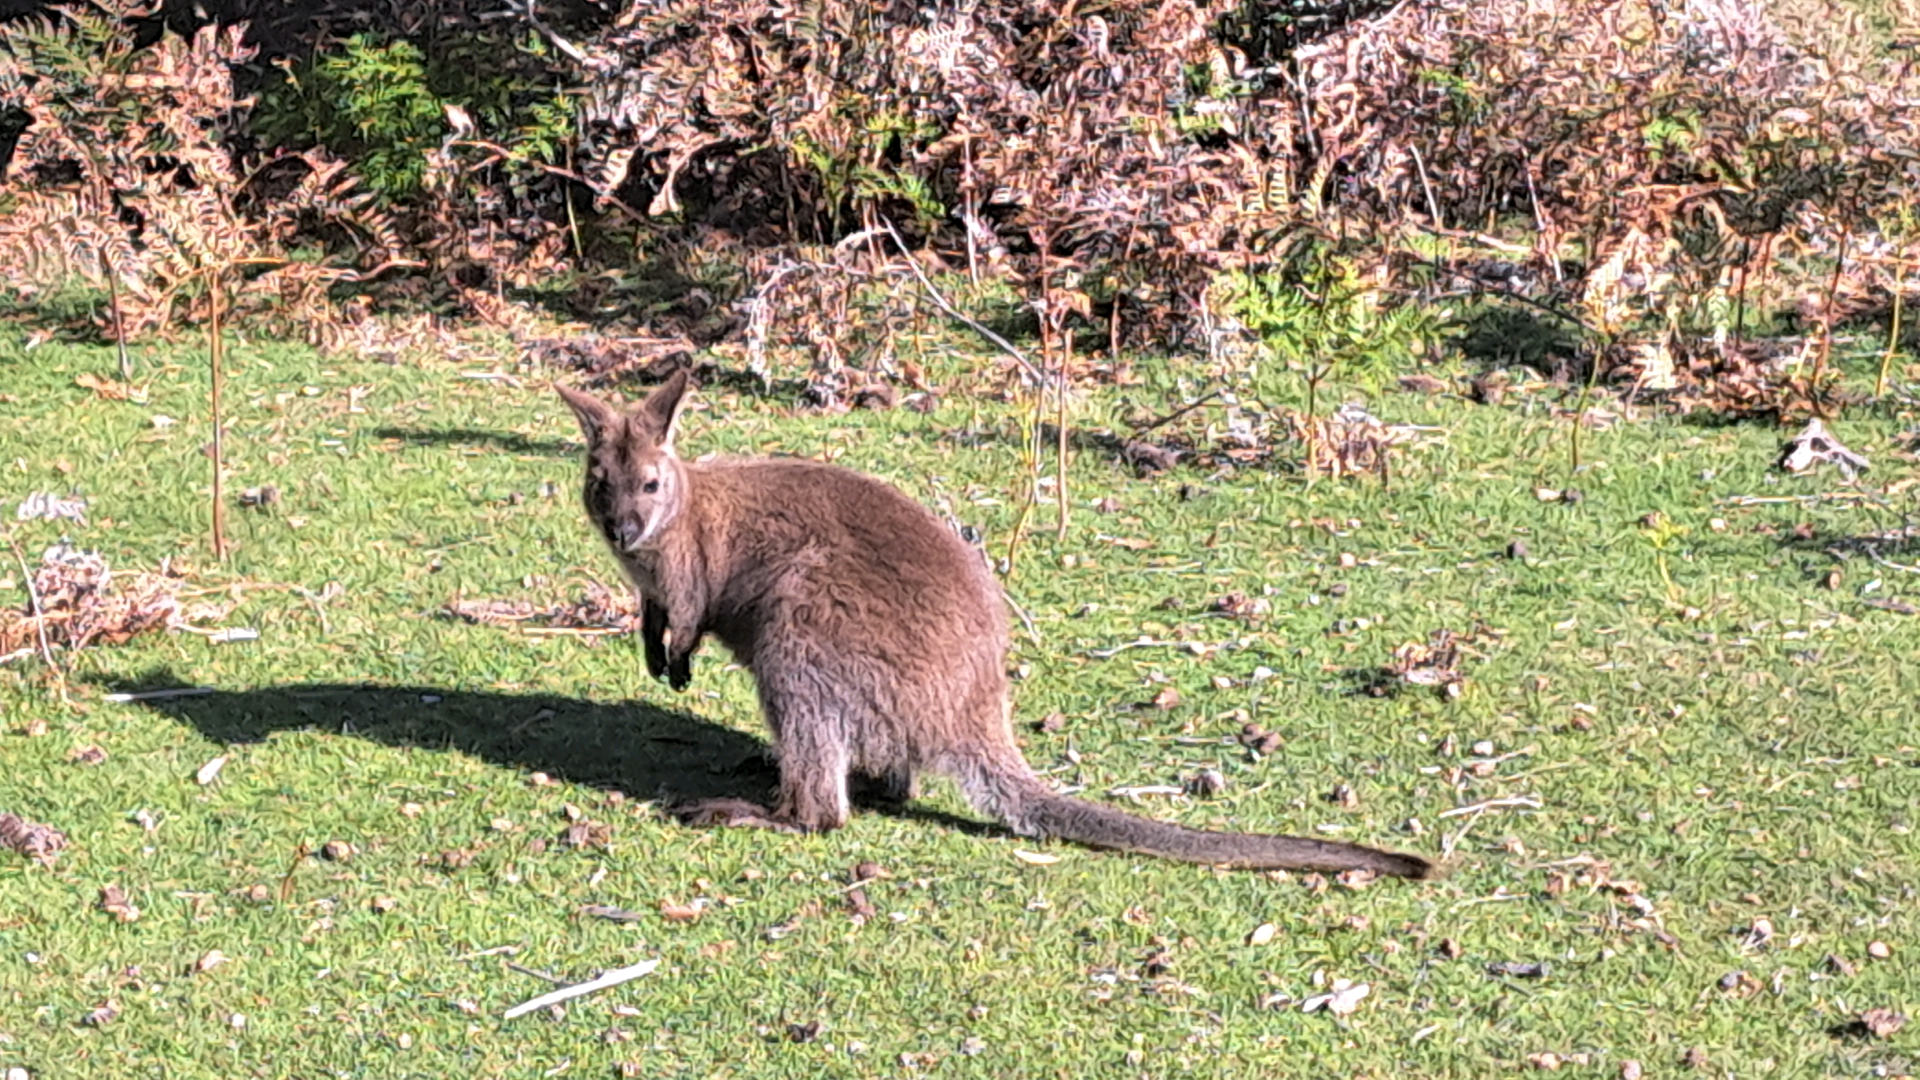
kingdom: Animalia
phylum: Chordata
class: Mammalia
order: Diprotodontia
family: Macropodidae
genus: Notamacropus
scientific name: Notamacropus rufogriseus
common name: Red-necked wallaby
